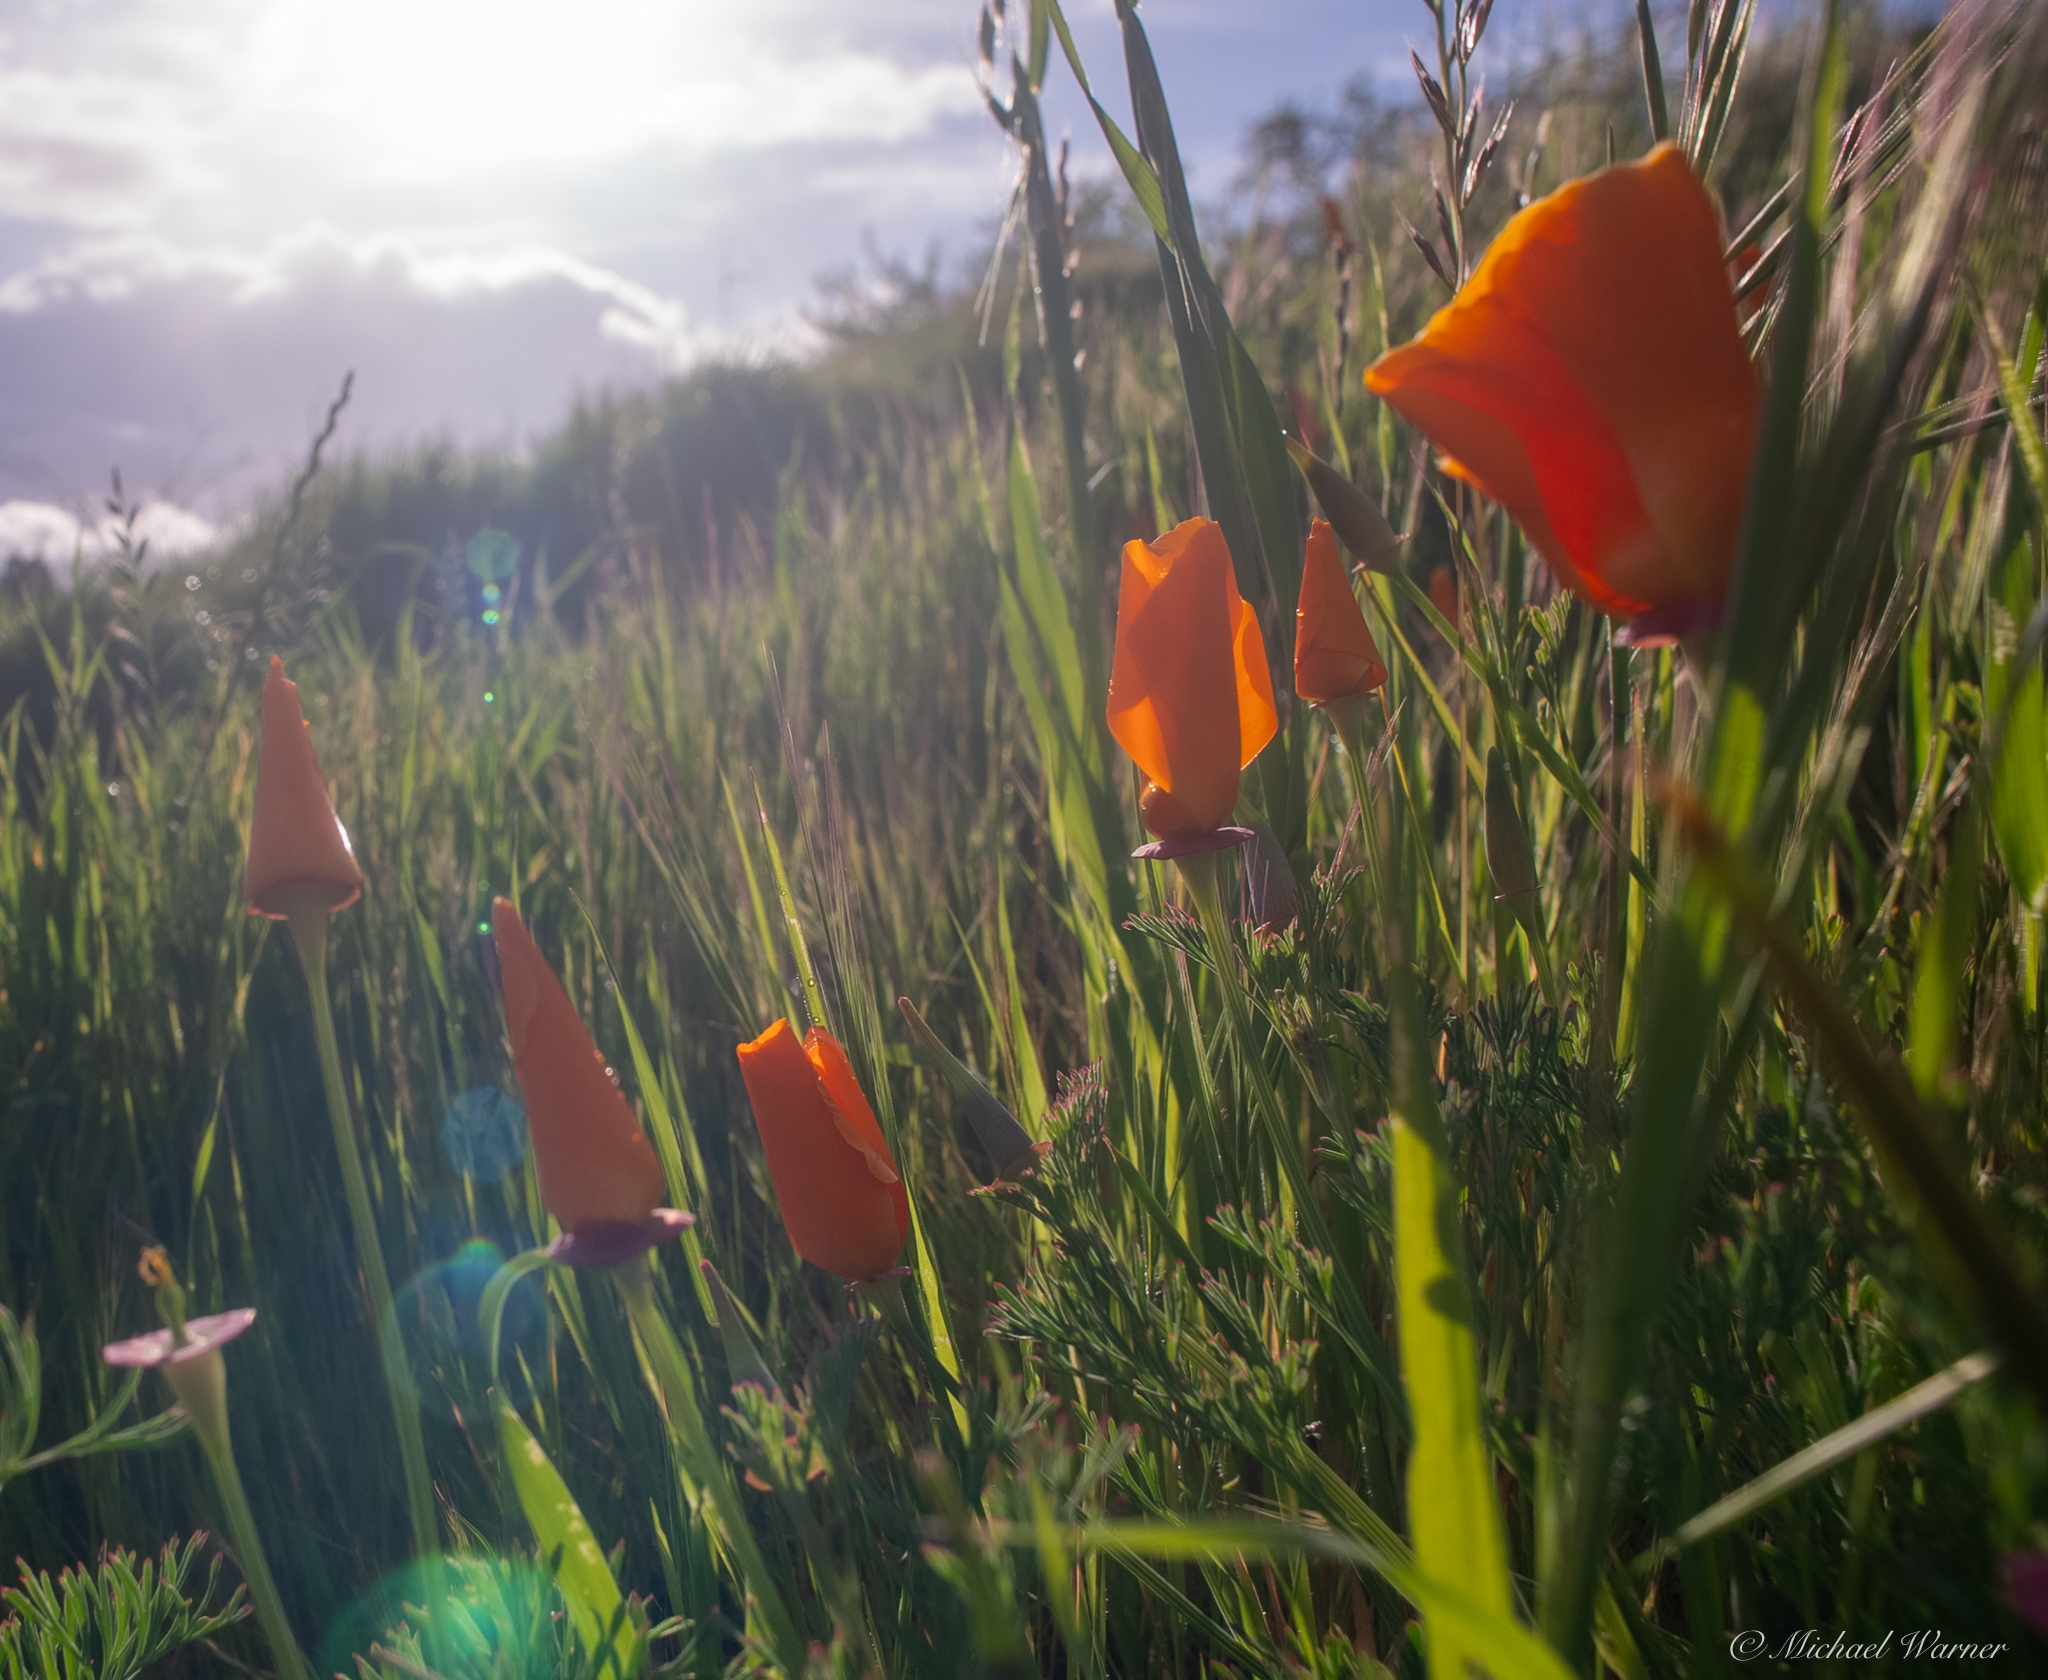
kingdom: Plantae
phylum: Tracheophyta
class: Magnoliopsida
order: Ranunculales
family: Papaveraceae
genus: Eschscholzia
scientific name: Eschscholzia californica
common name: California poppy
